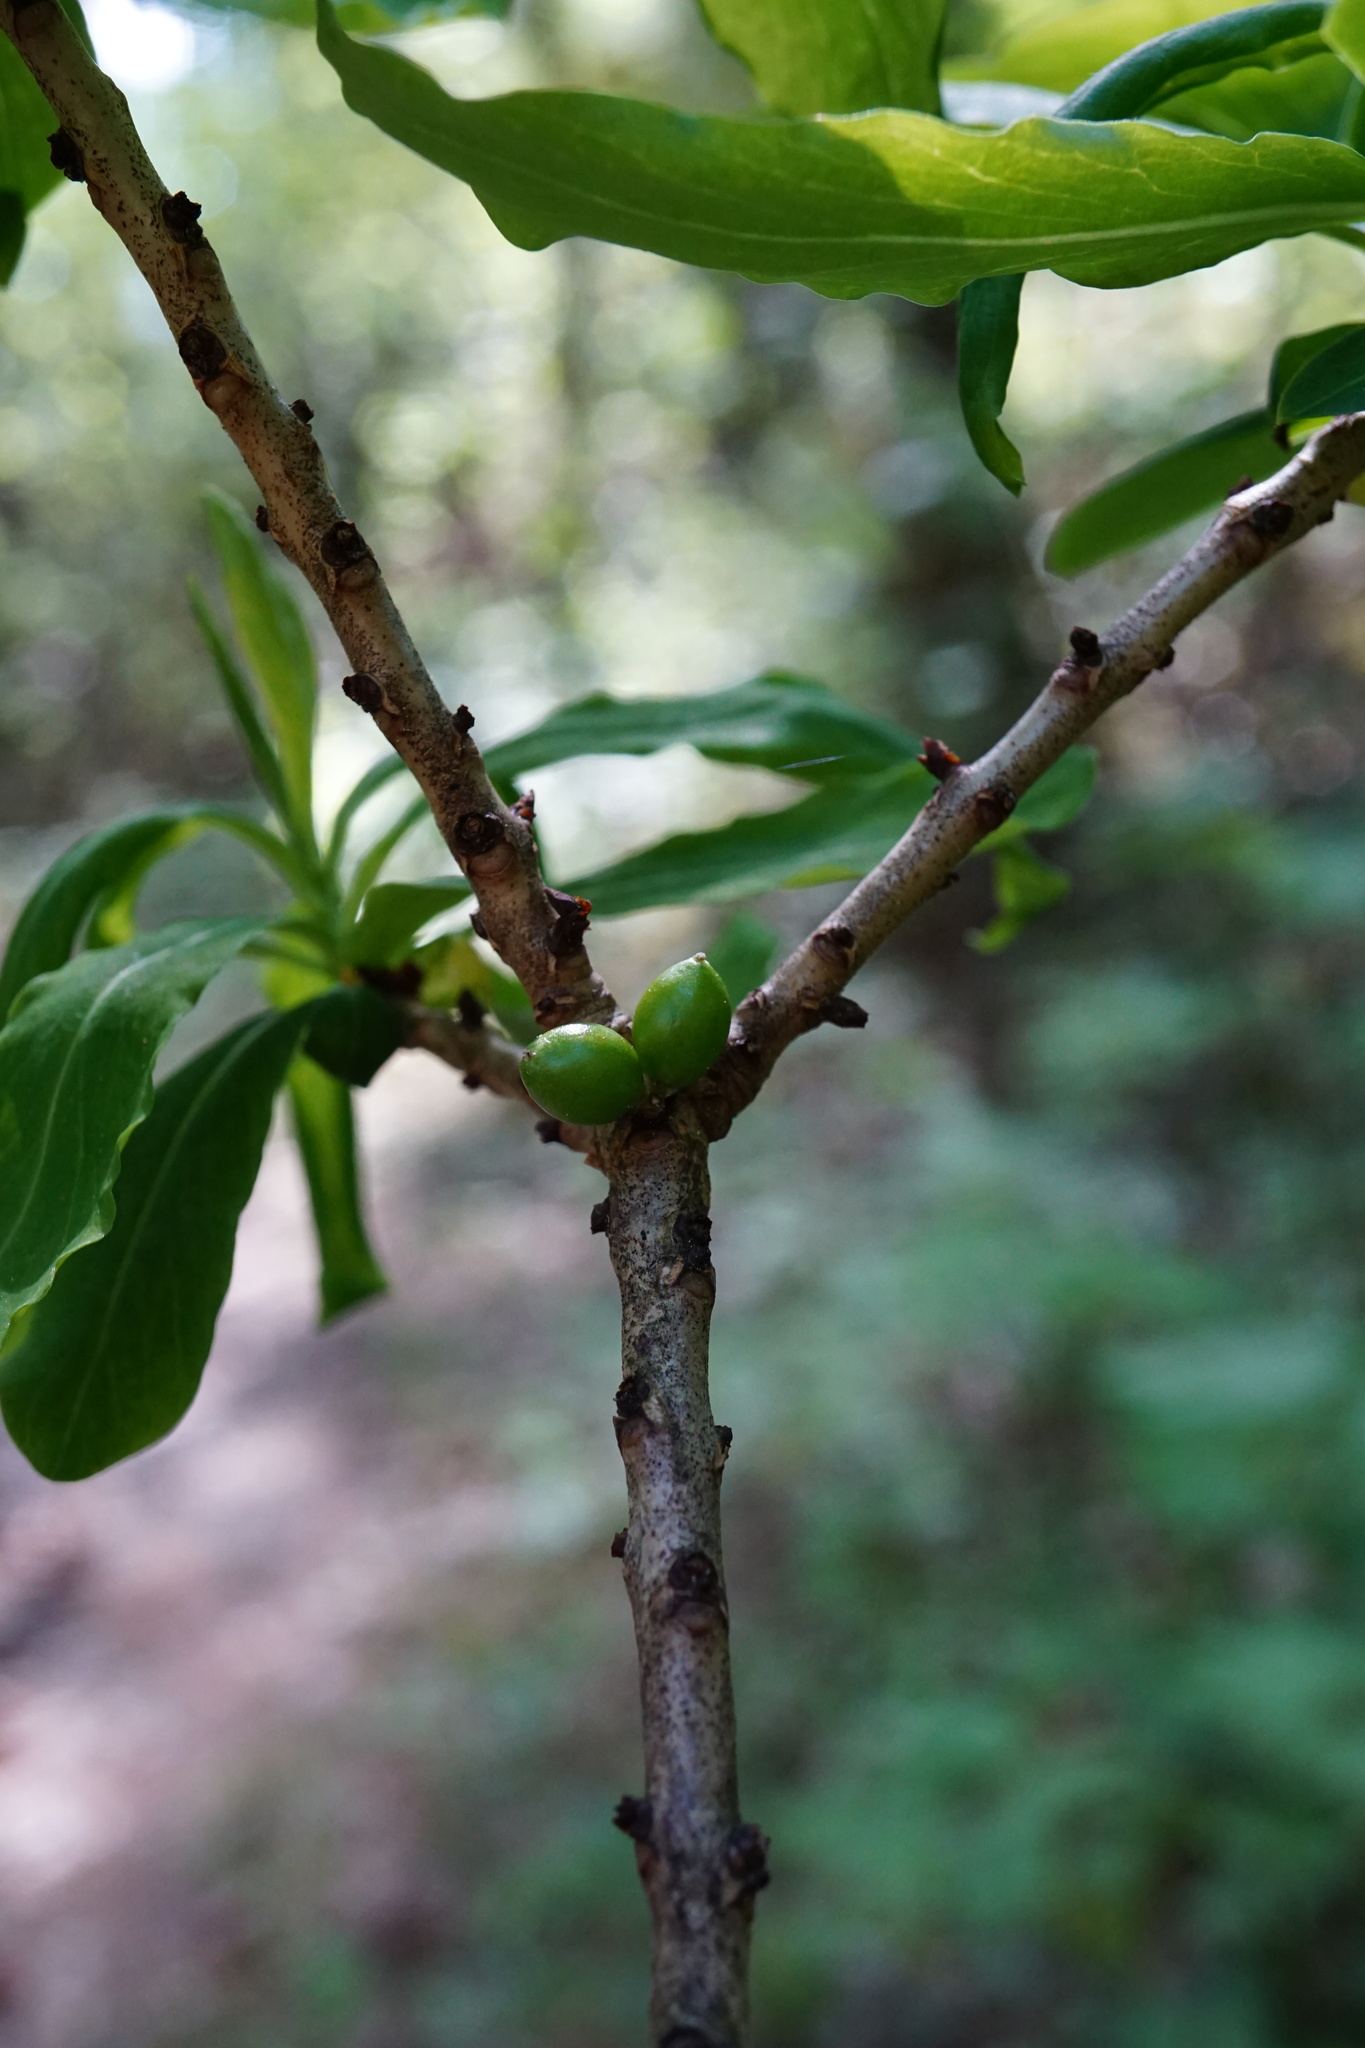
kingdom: Plantae
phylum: Tracheophyta
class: Magnoliopsida
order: Malvales
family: Thymelaeaceae
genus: Daphne
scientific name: Daphne mezereum
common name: Mezereon
